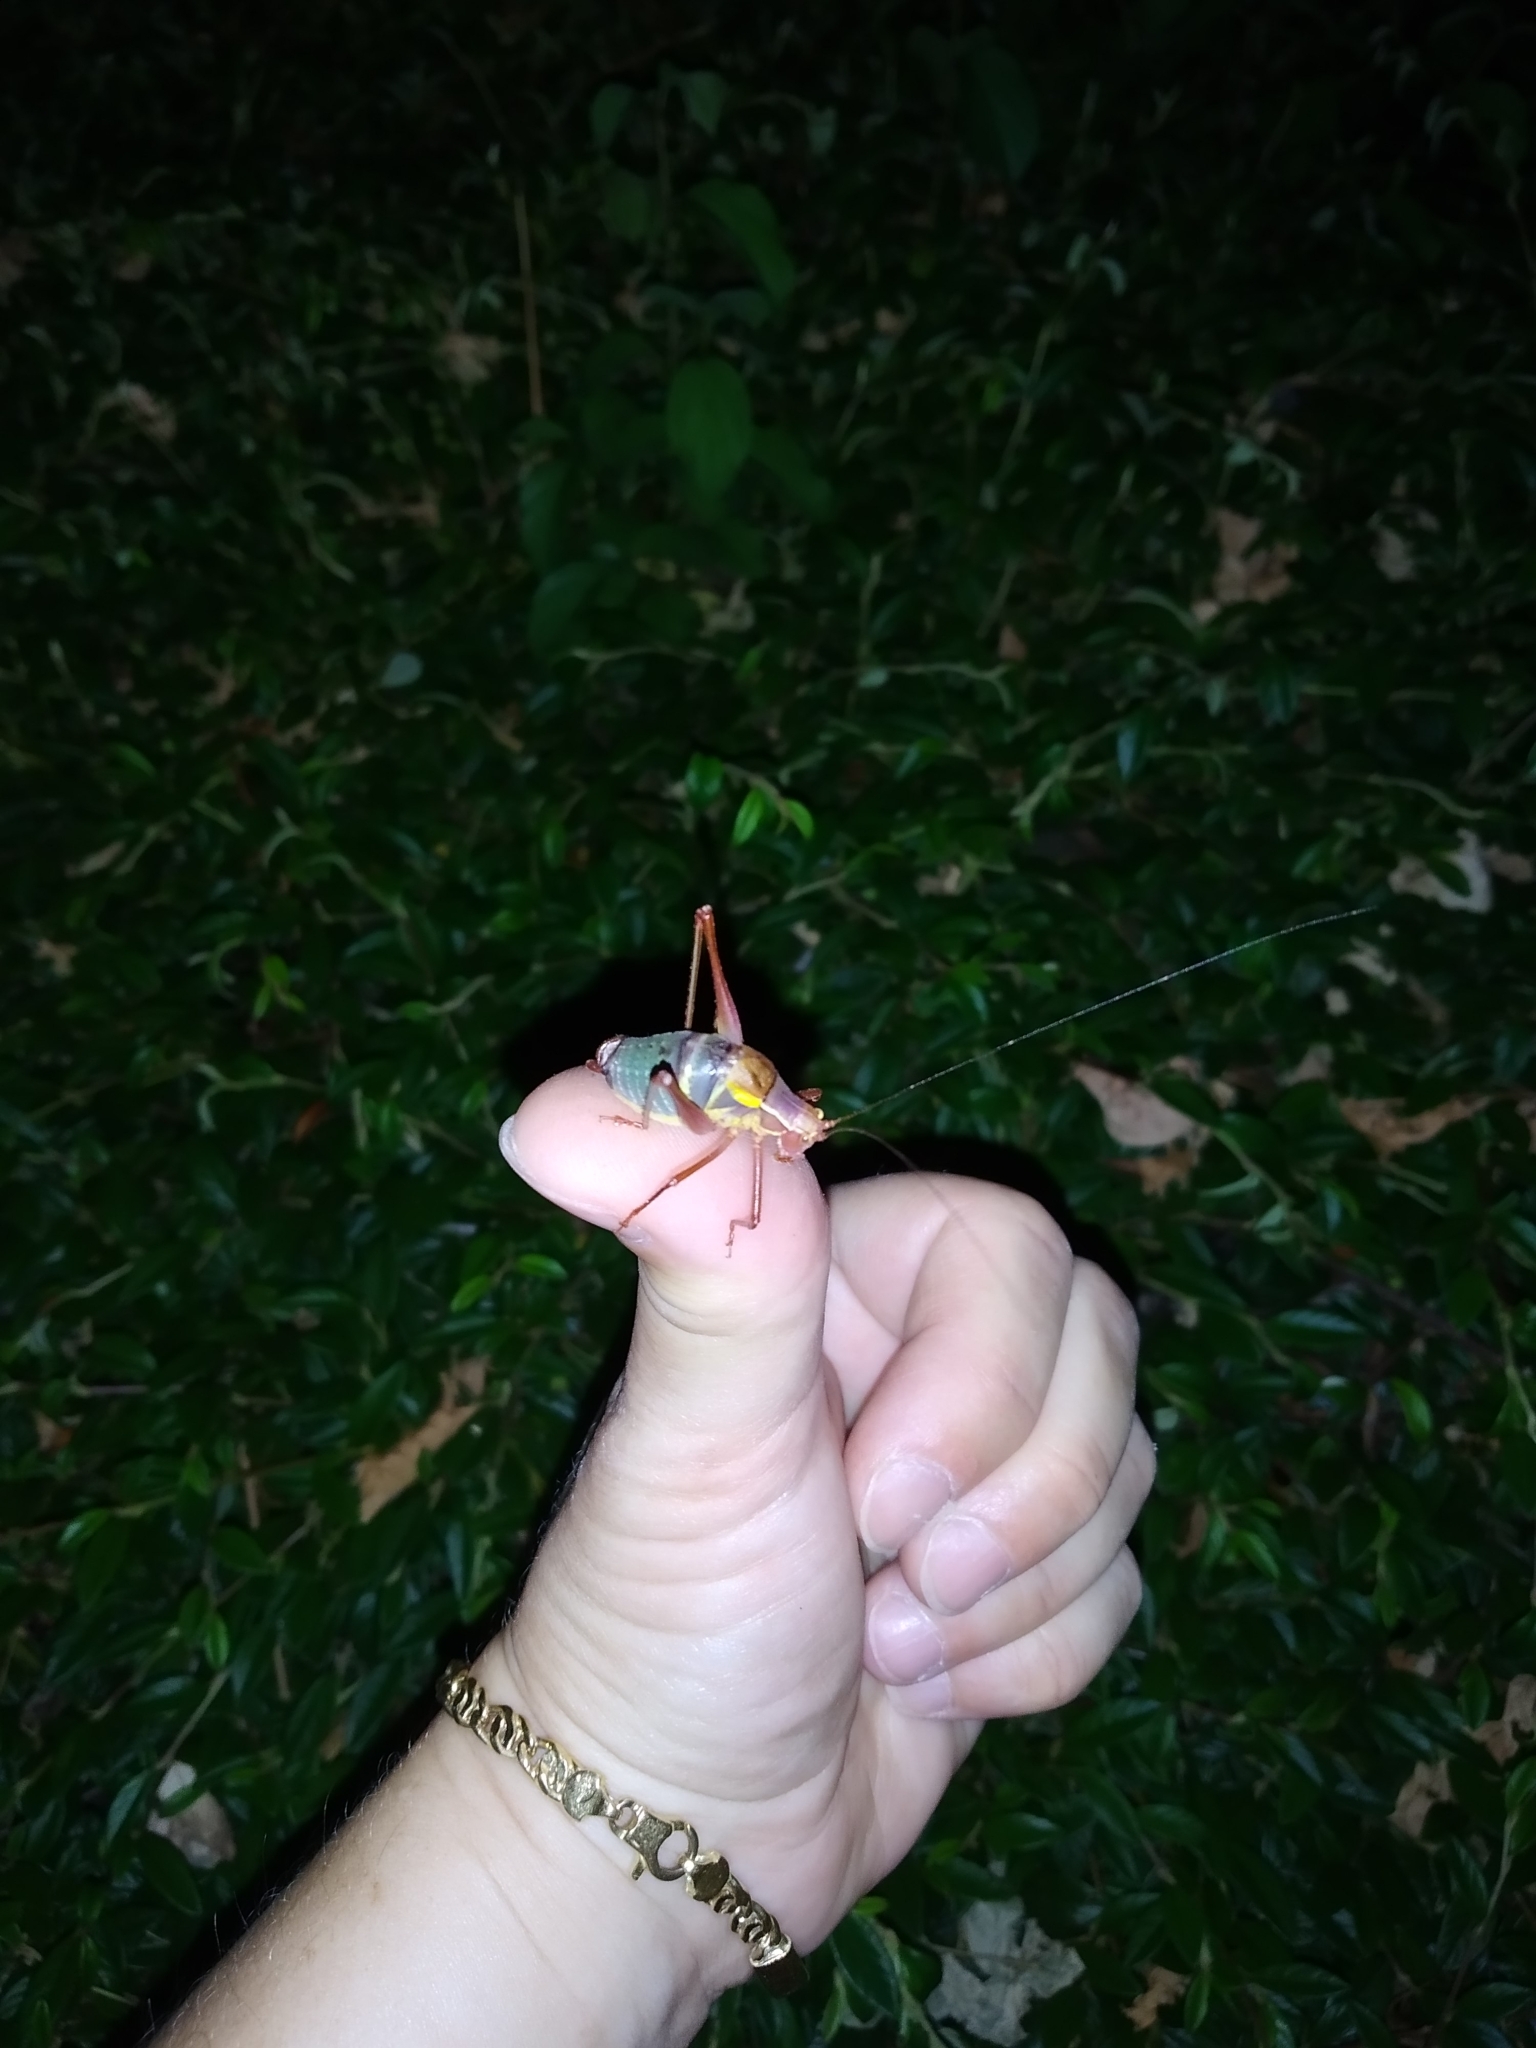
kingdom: Animalia
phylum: Arthropoda
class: Insecta
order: Orthoptera
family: Tettigoniidae
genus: Barbitistes
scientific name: Barbitistes obtusus
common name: Alpine saw bush-cricket
